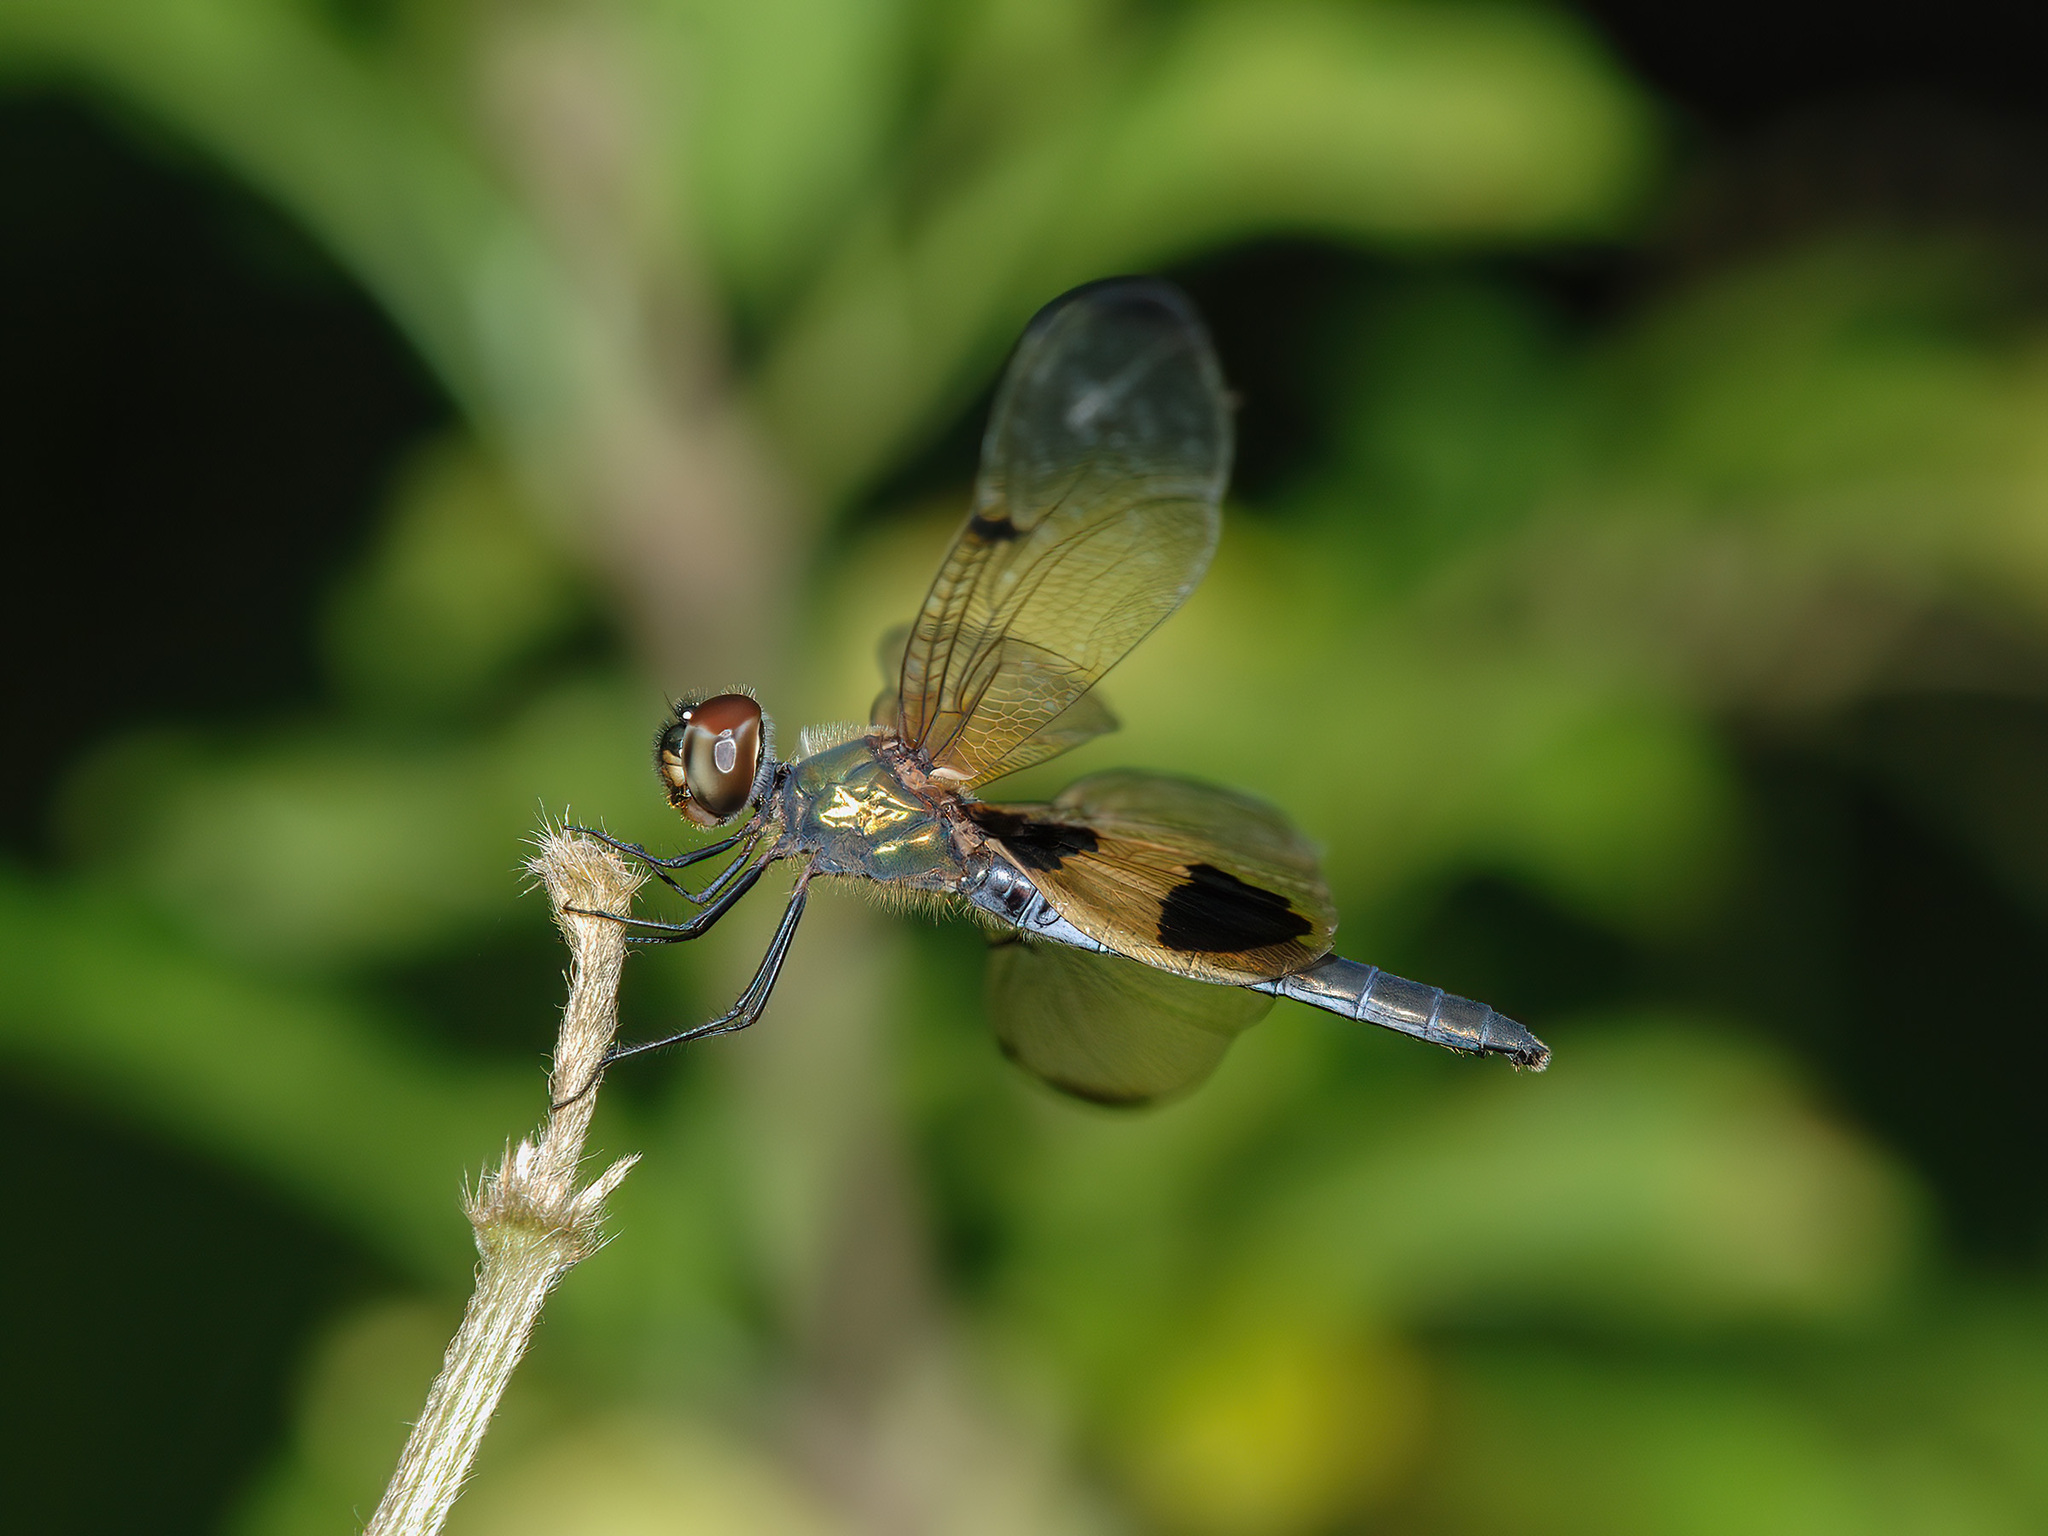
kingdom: Animalia
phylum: Arthropoda
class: Insecta
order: Odonata
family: Libellulidae
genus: Rhyothemis
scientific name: Rhyothemis phyllis
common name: Yellow-barred flutterer
